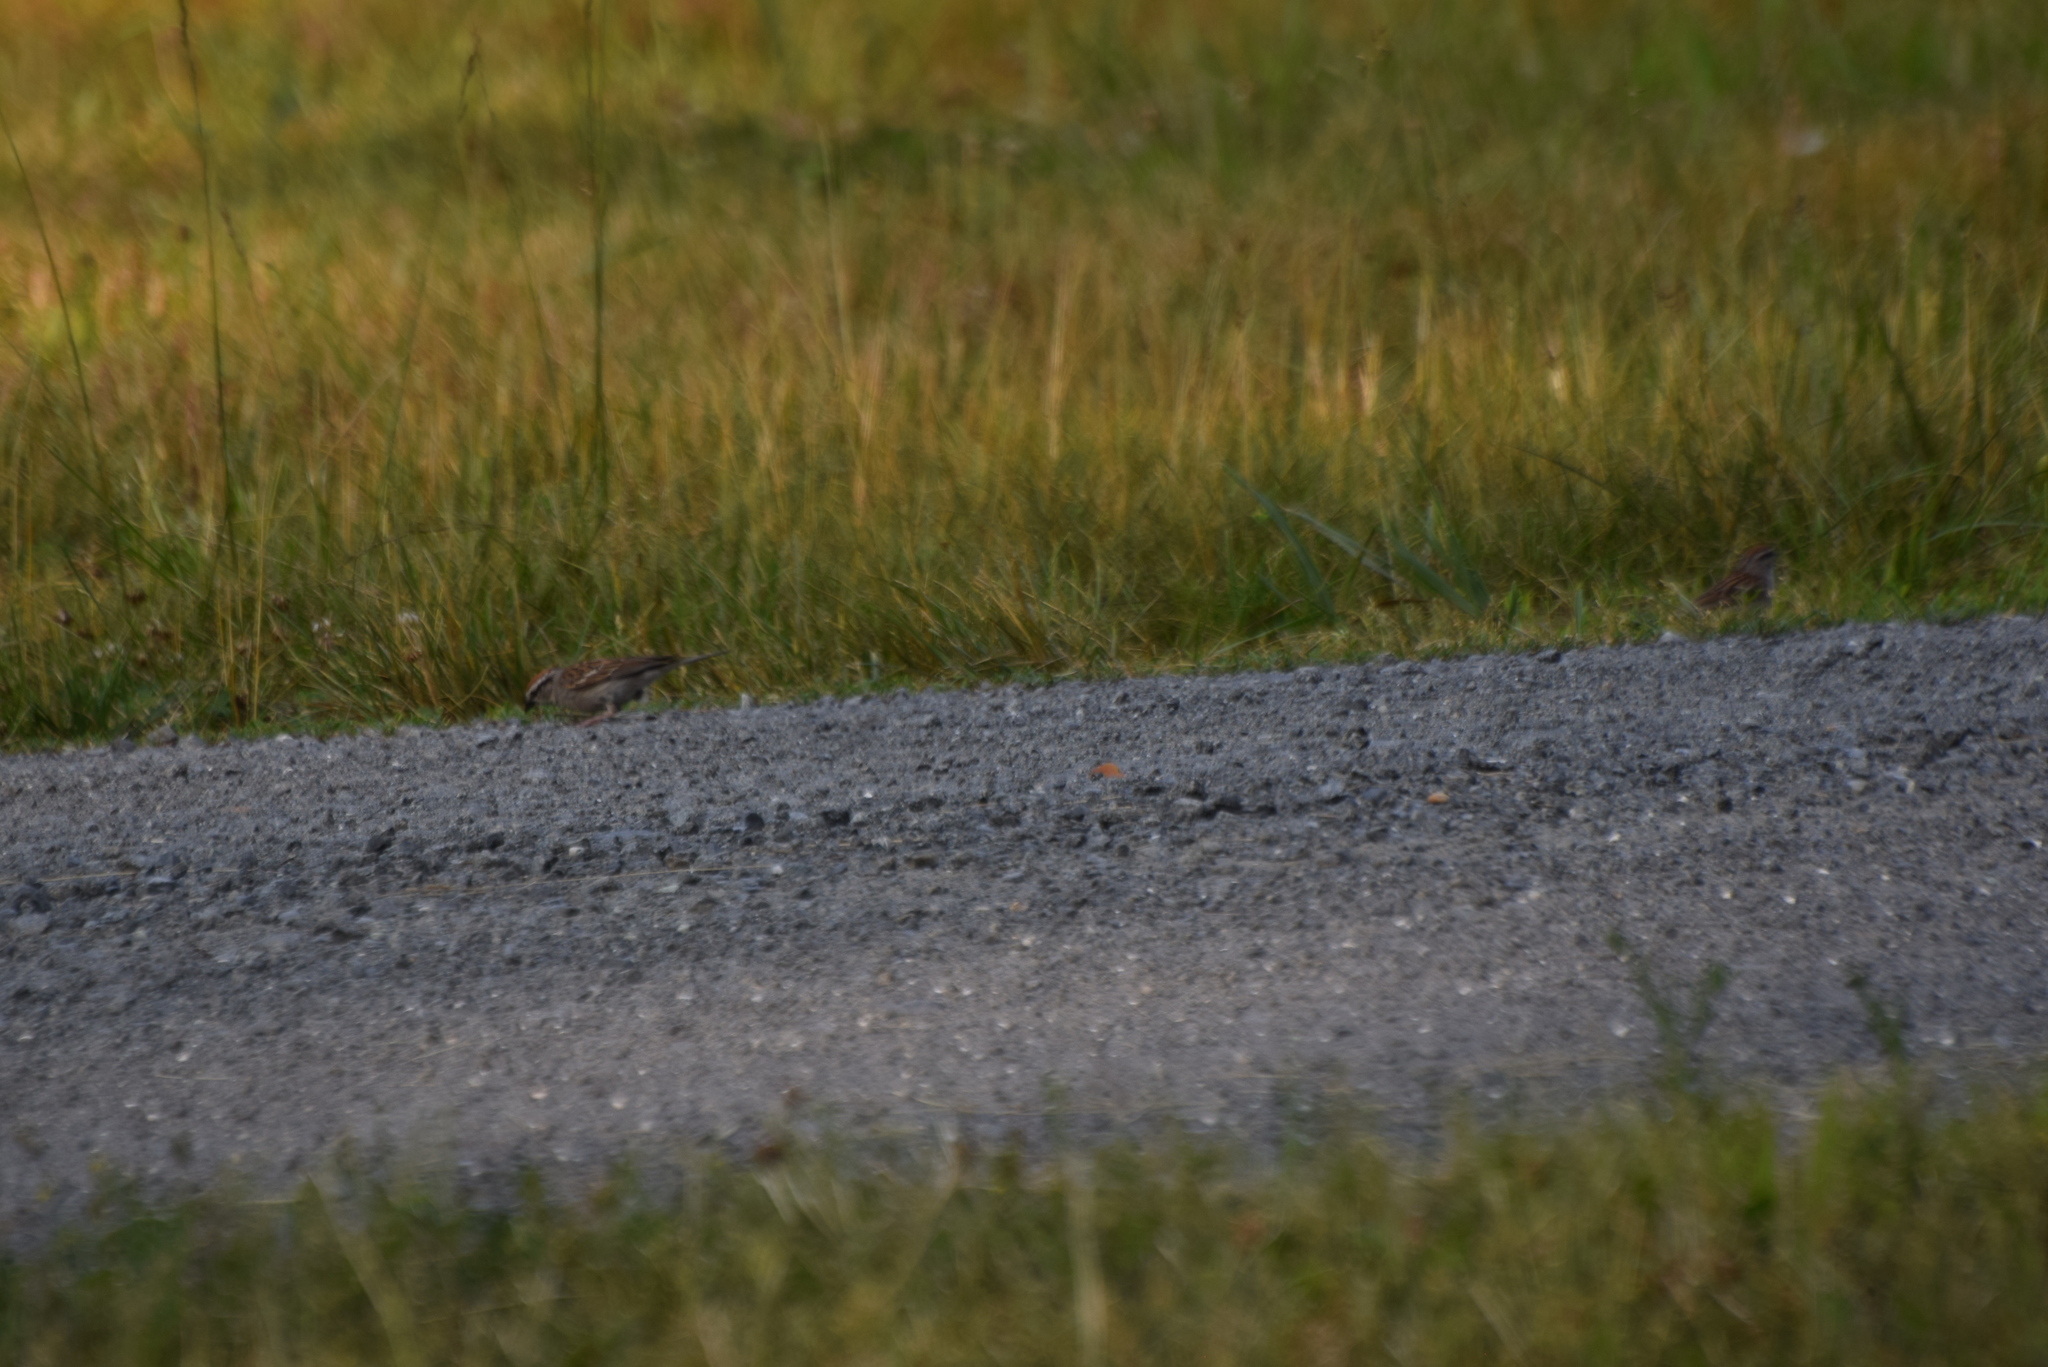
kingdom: Animalia
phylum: Chordata
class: Aves
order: Passeriformes
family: Passerellidae
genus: Spizella
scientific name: Spizella passerina
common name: Chipping sparrow
